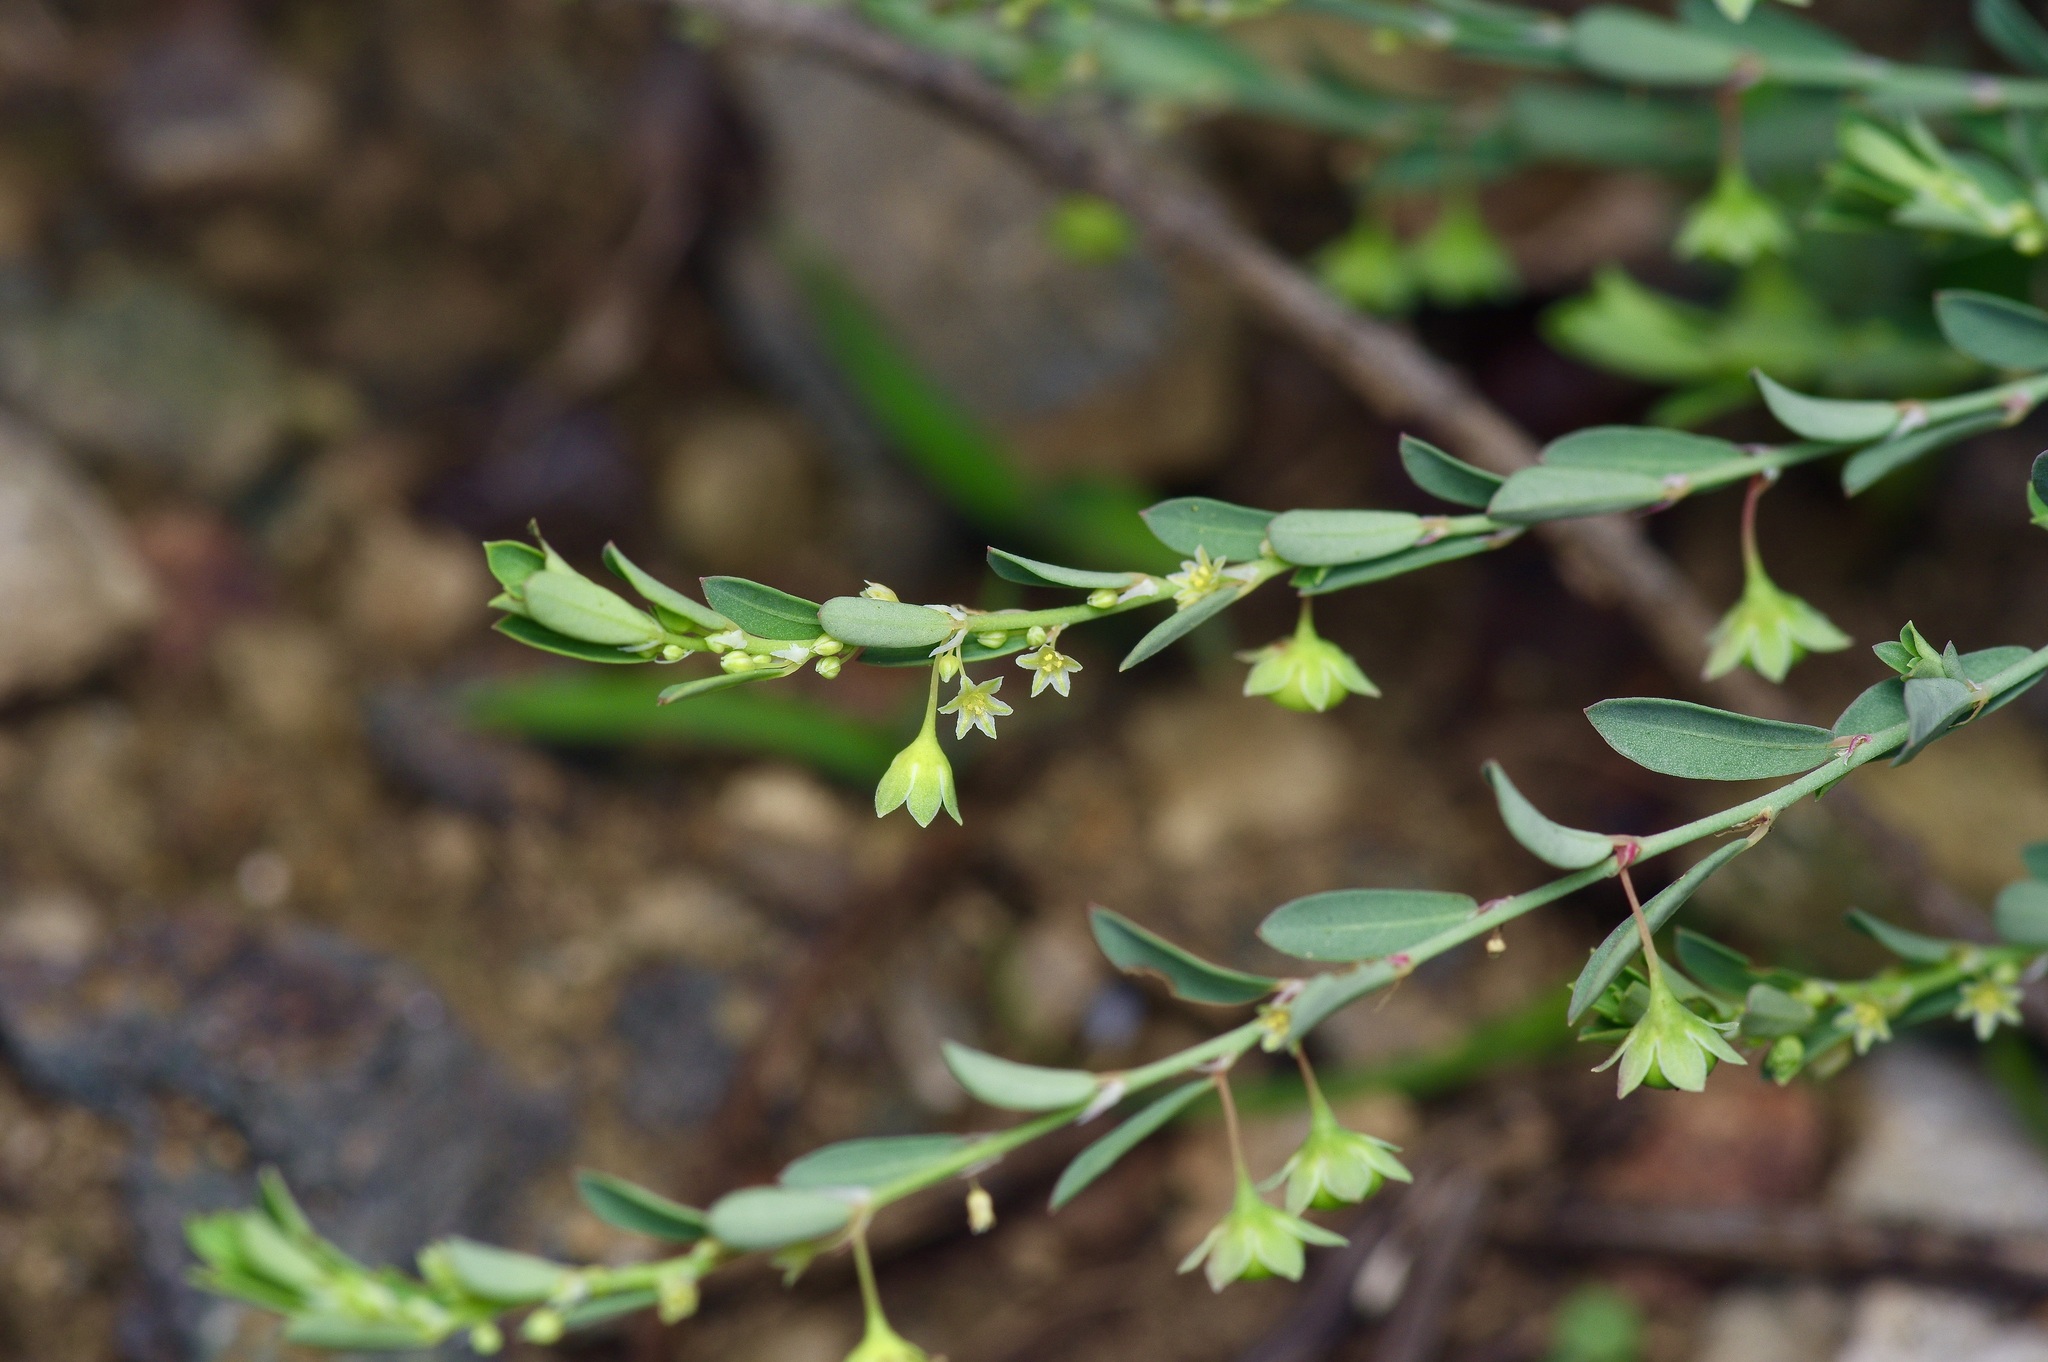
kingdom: Plantae
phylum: Tracheophyta
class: Magnoliopsida
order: Malpighiales
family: Phyllanthaceae
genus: Phyllanthus
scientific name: Phyllanthus polygonoides
